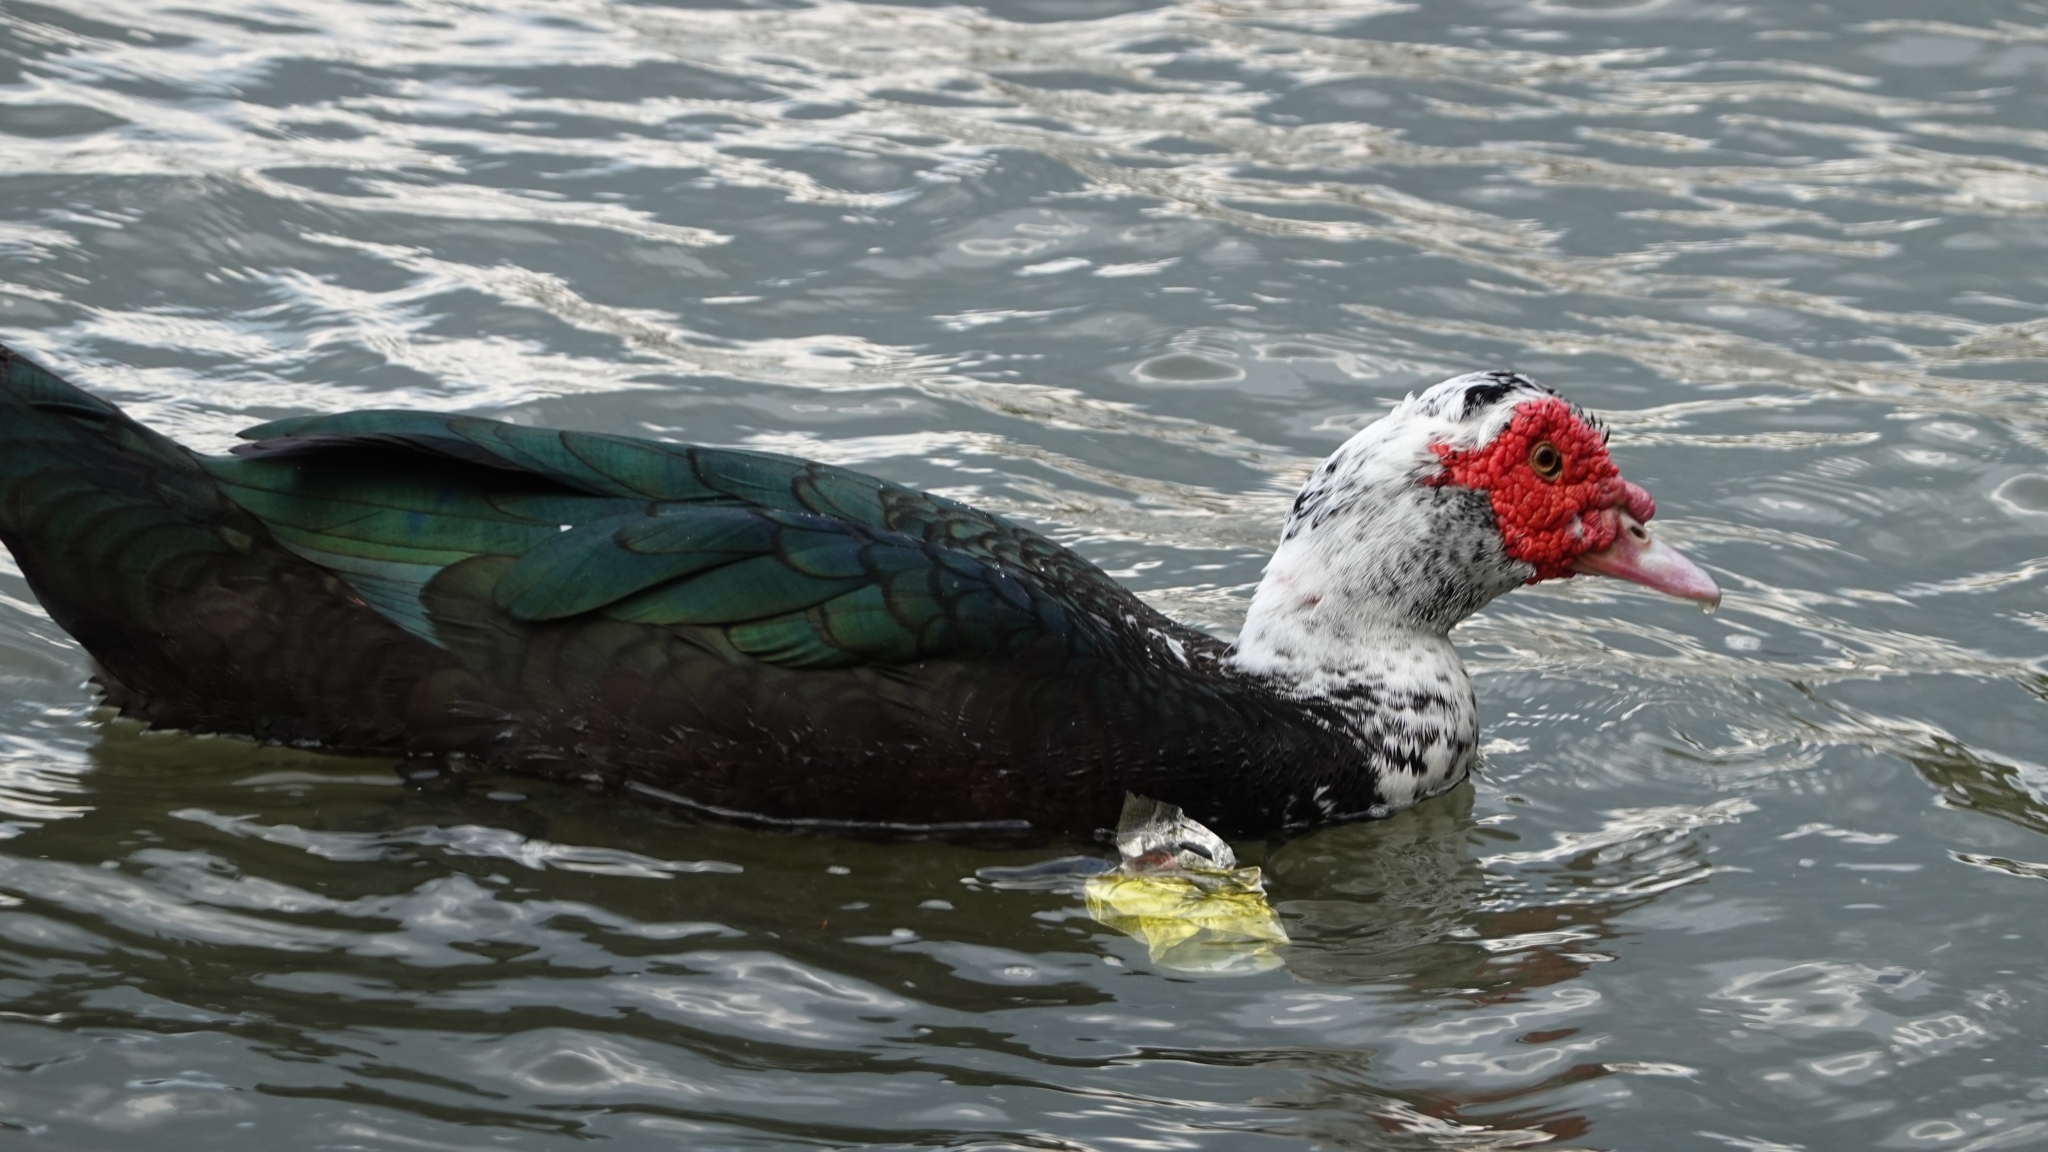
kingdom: Animalia
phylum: Chordata
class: Aves
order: Anseriformes
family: Anatidae
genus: Cairina
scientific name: Cairina moschata
